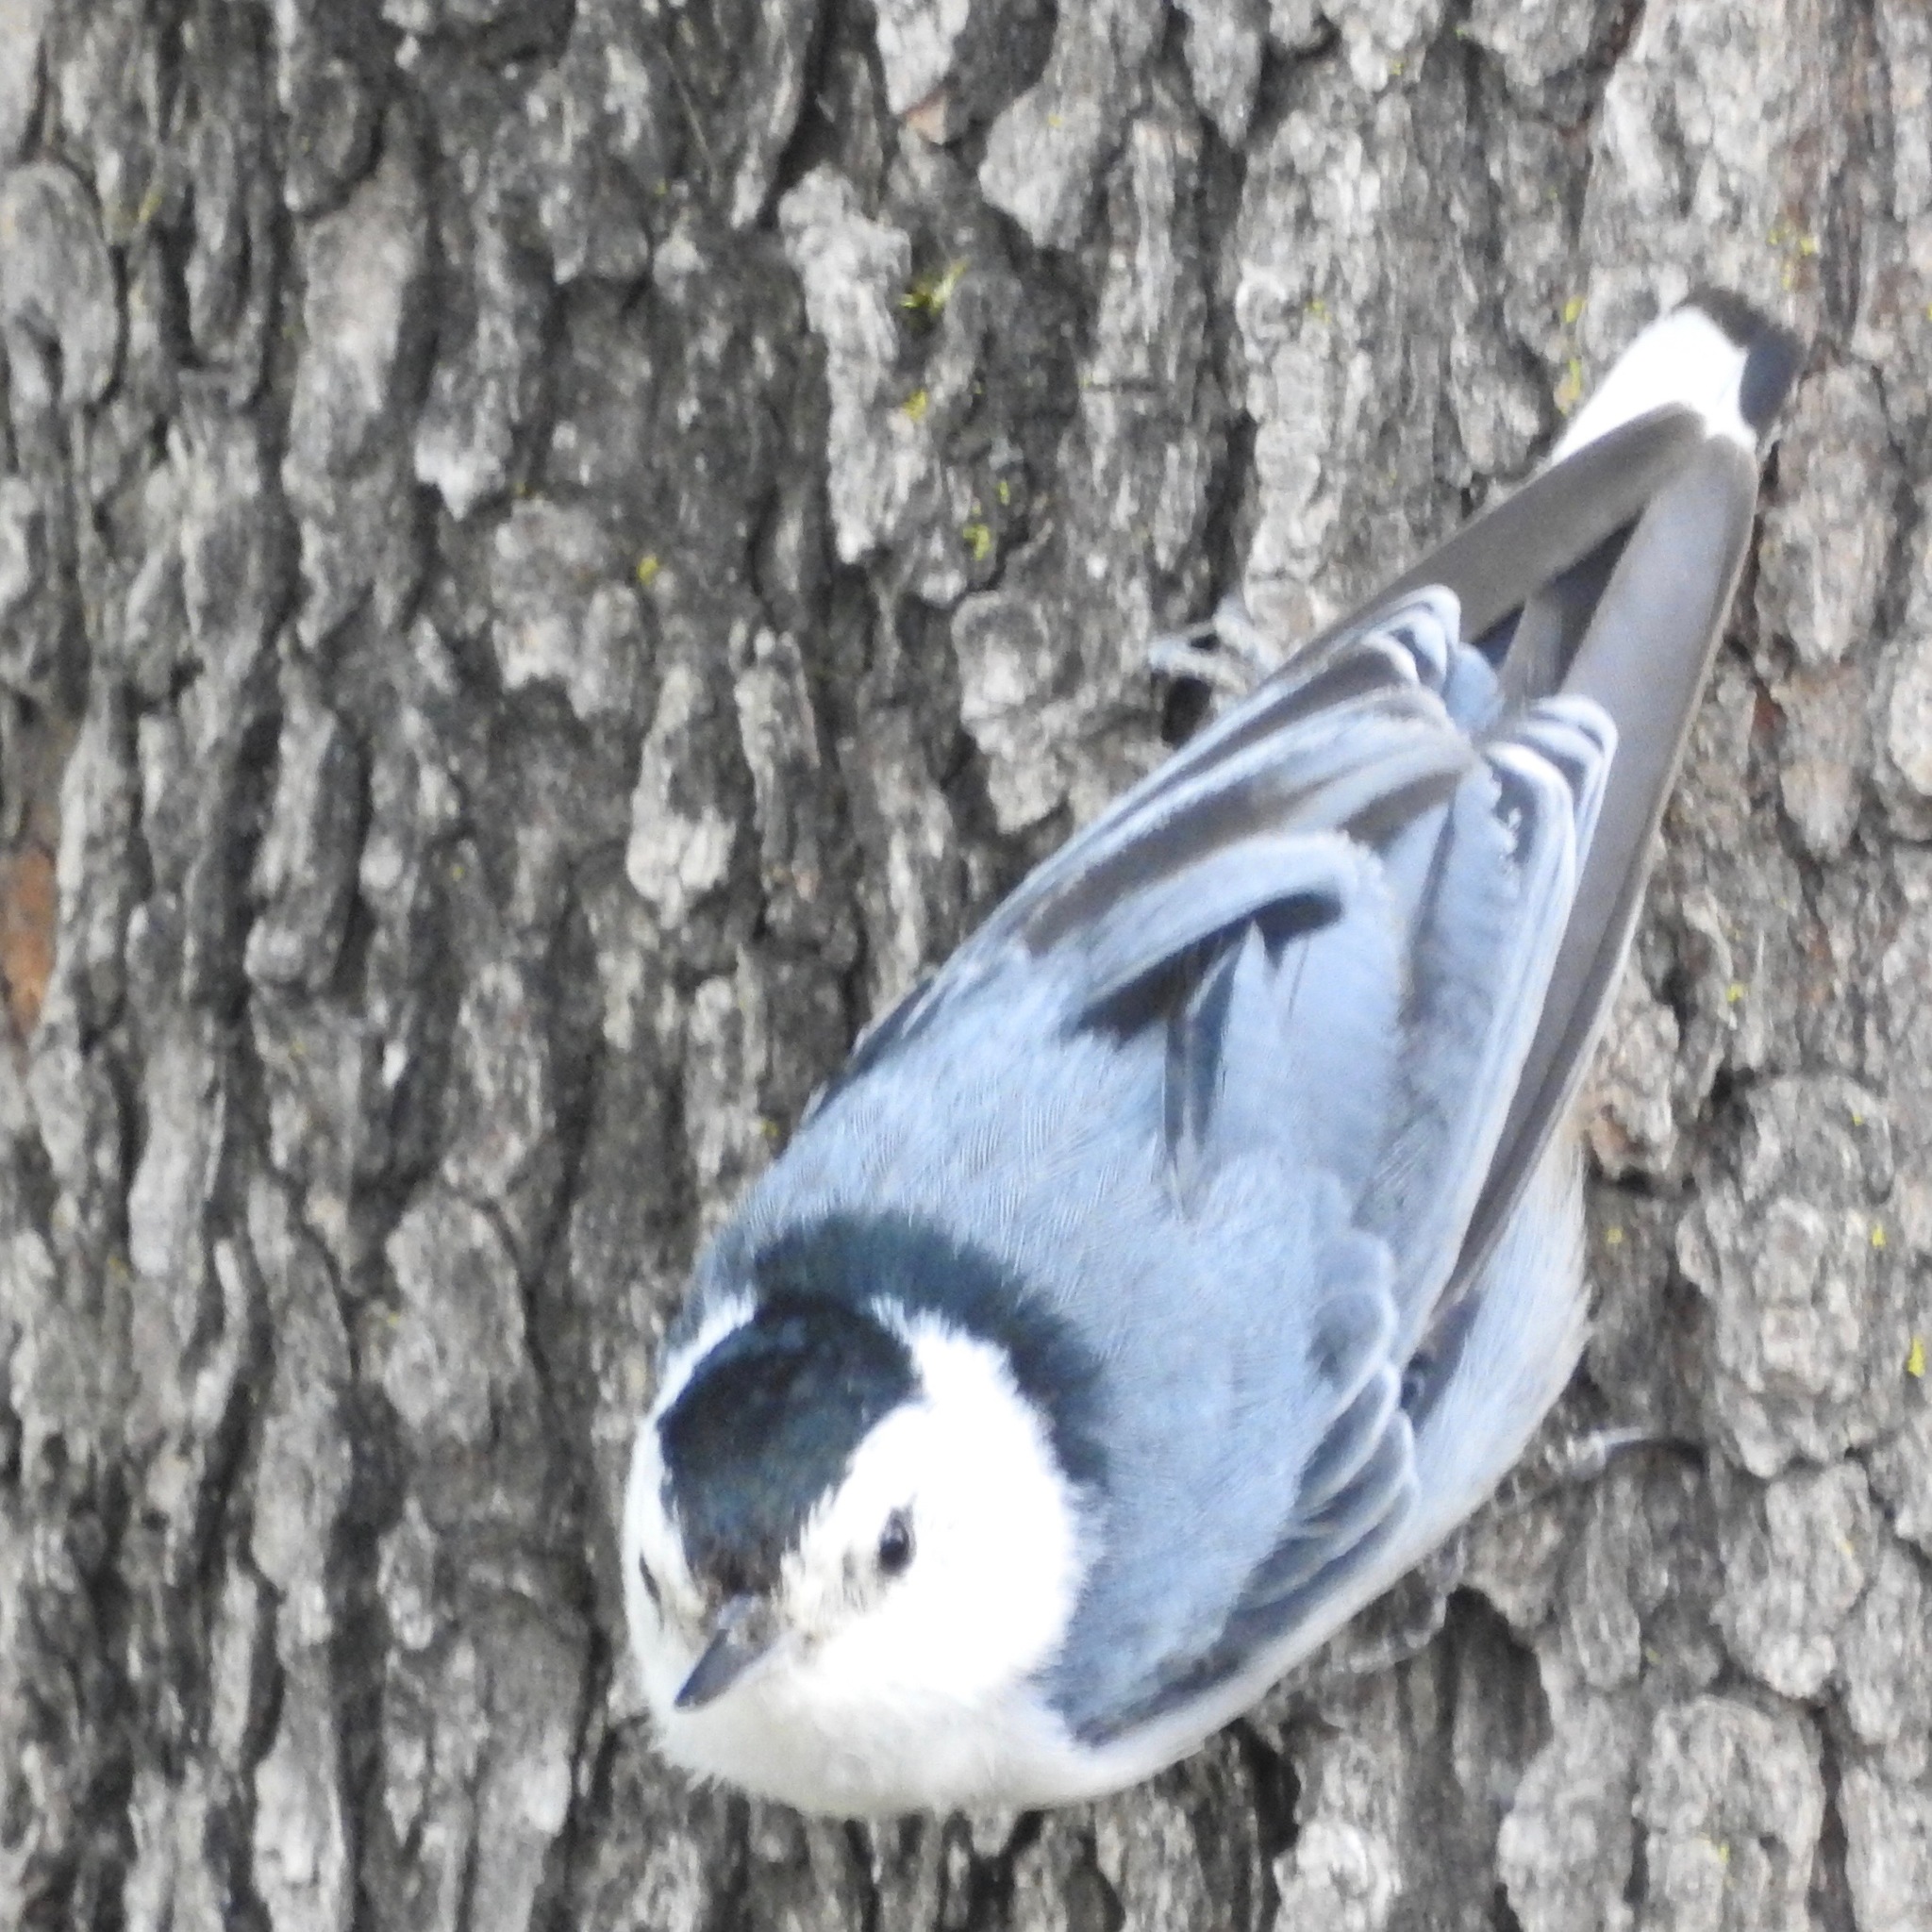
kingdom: Animalia
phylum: Chordata
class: Aves
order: Passeriformes
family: Sittidae
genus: Sitta
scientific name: Sitta carolinensis
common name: White-breasted nuthatch
